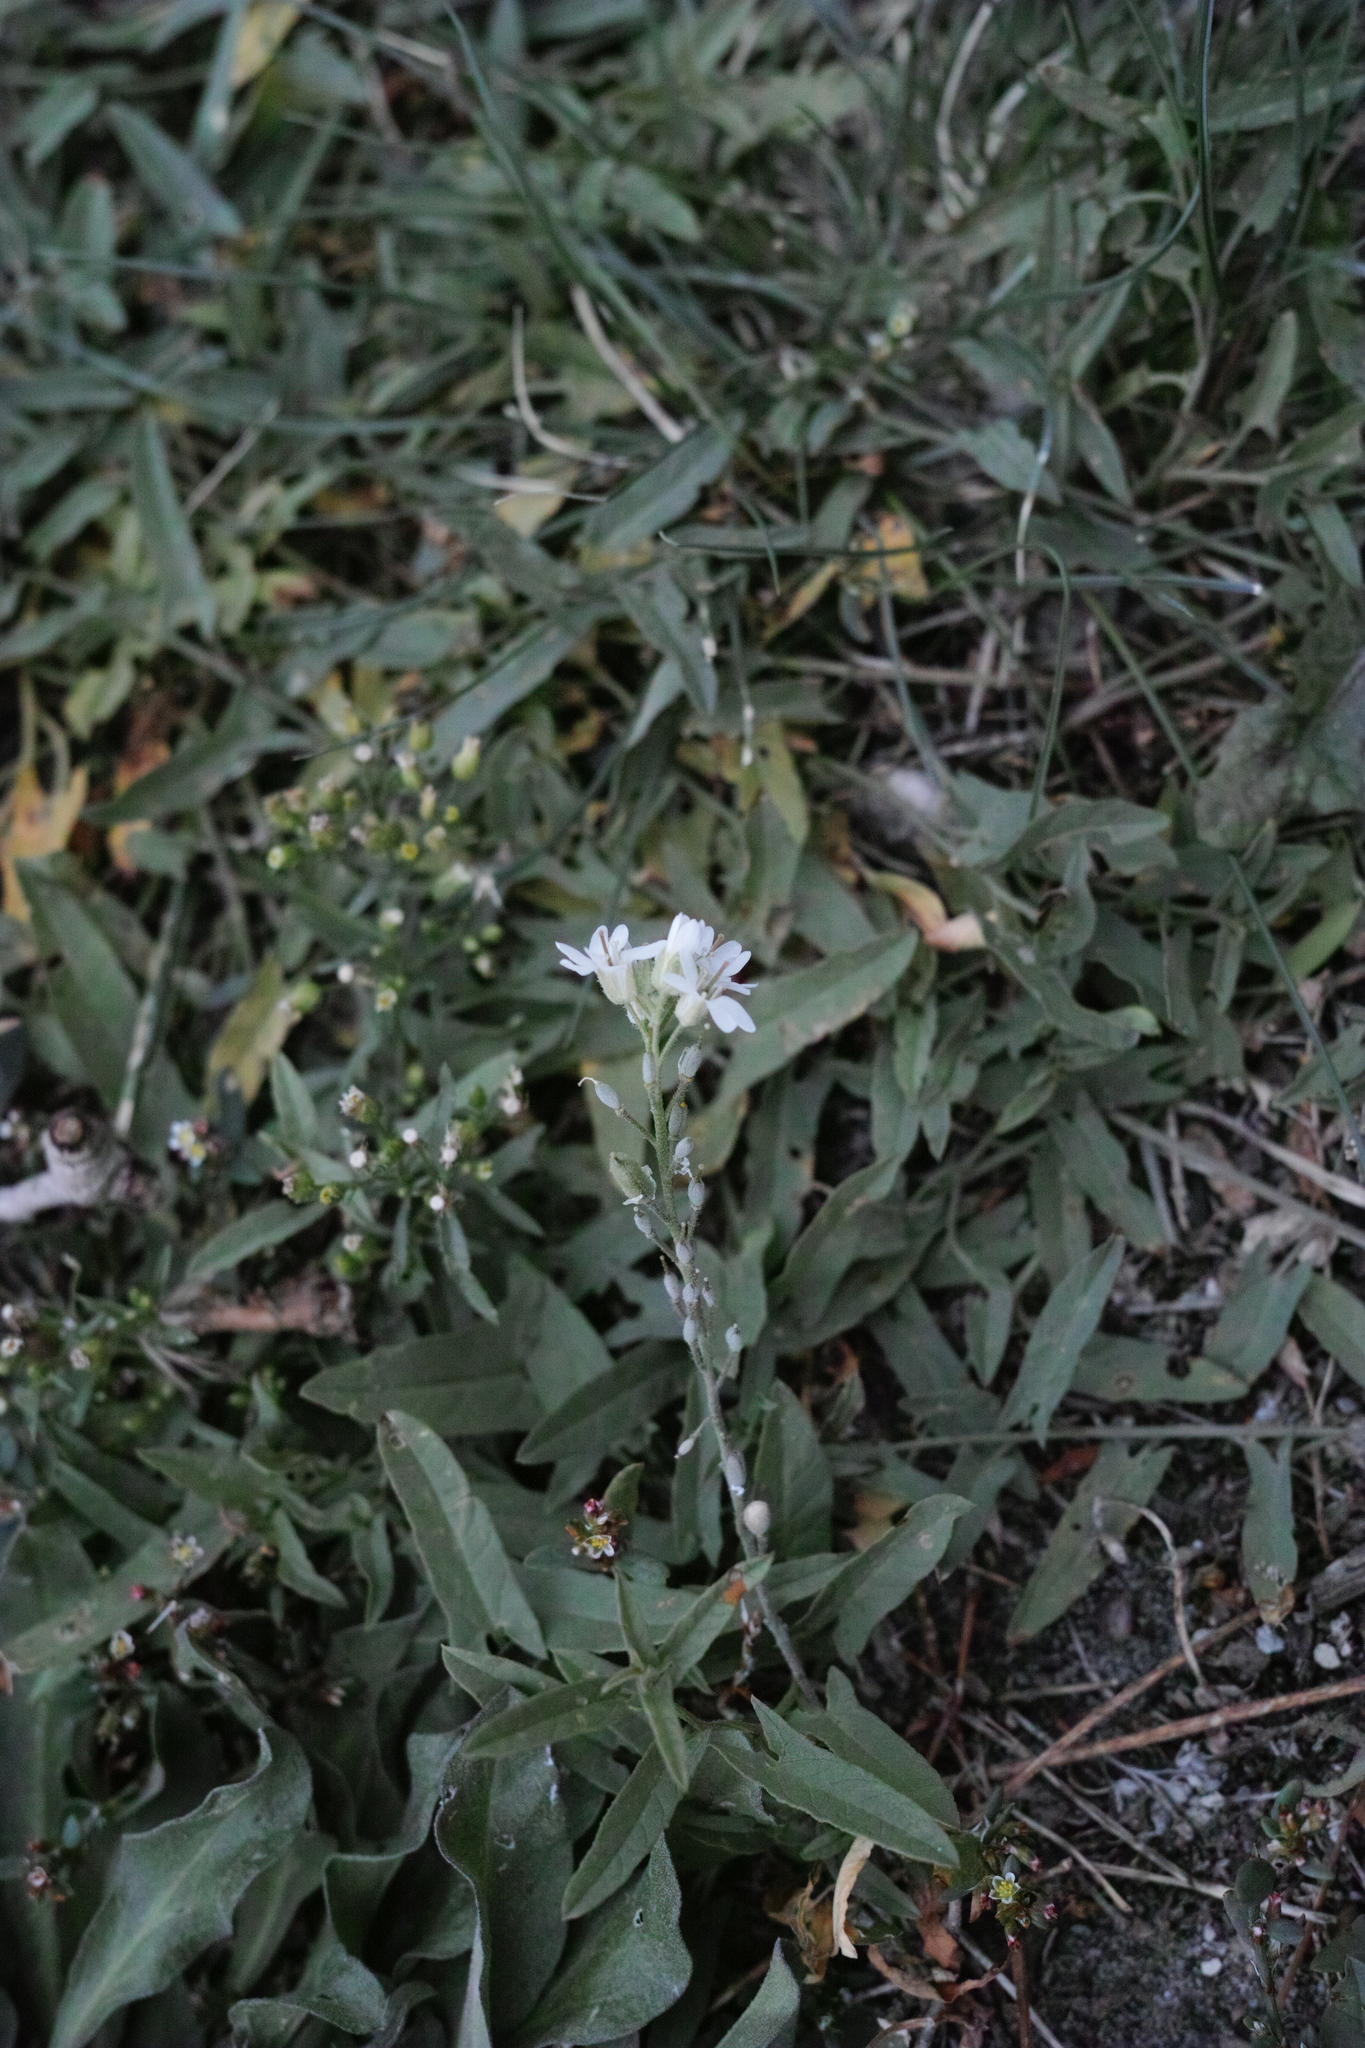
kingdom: Plantae
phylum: Tracheophyta
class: Magnoliopsida
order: Brassicales
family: Brassicaceae
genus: Berteroa
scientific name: Berteroa incana
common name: Hoary alison
